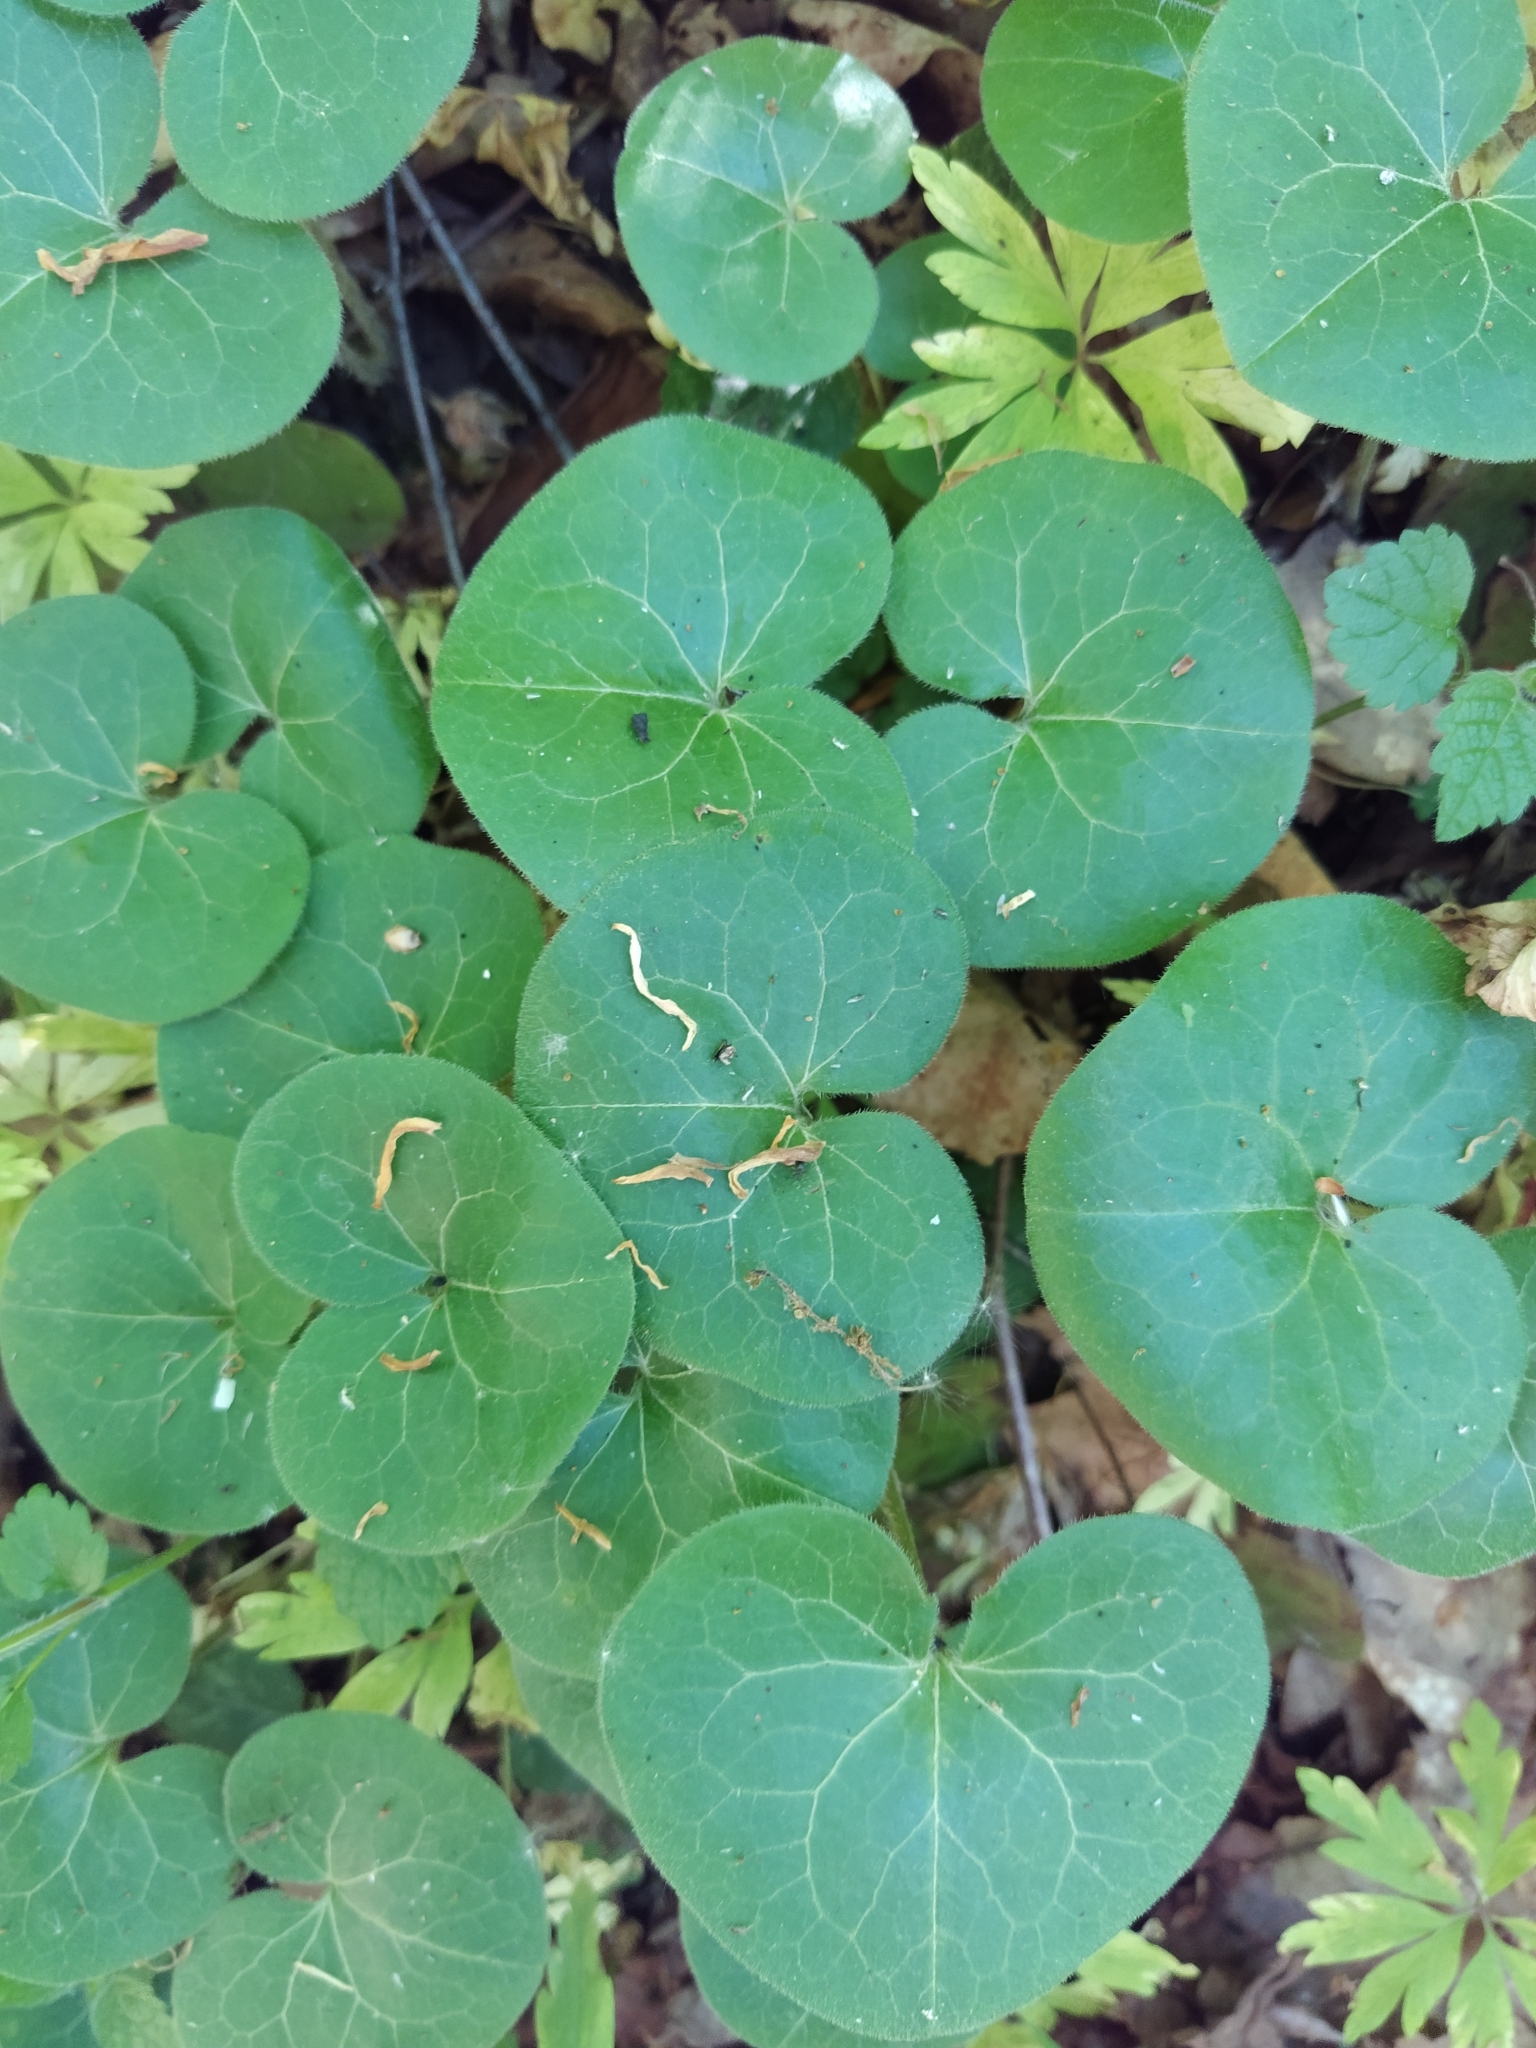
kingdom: Plantae
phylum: Tracheophyta
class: Magnoliopsida
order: Piperales
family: Aristolochiaceae
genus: Asarum
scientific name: Asarum europaeum
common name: Asarabacca
